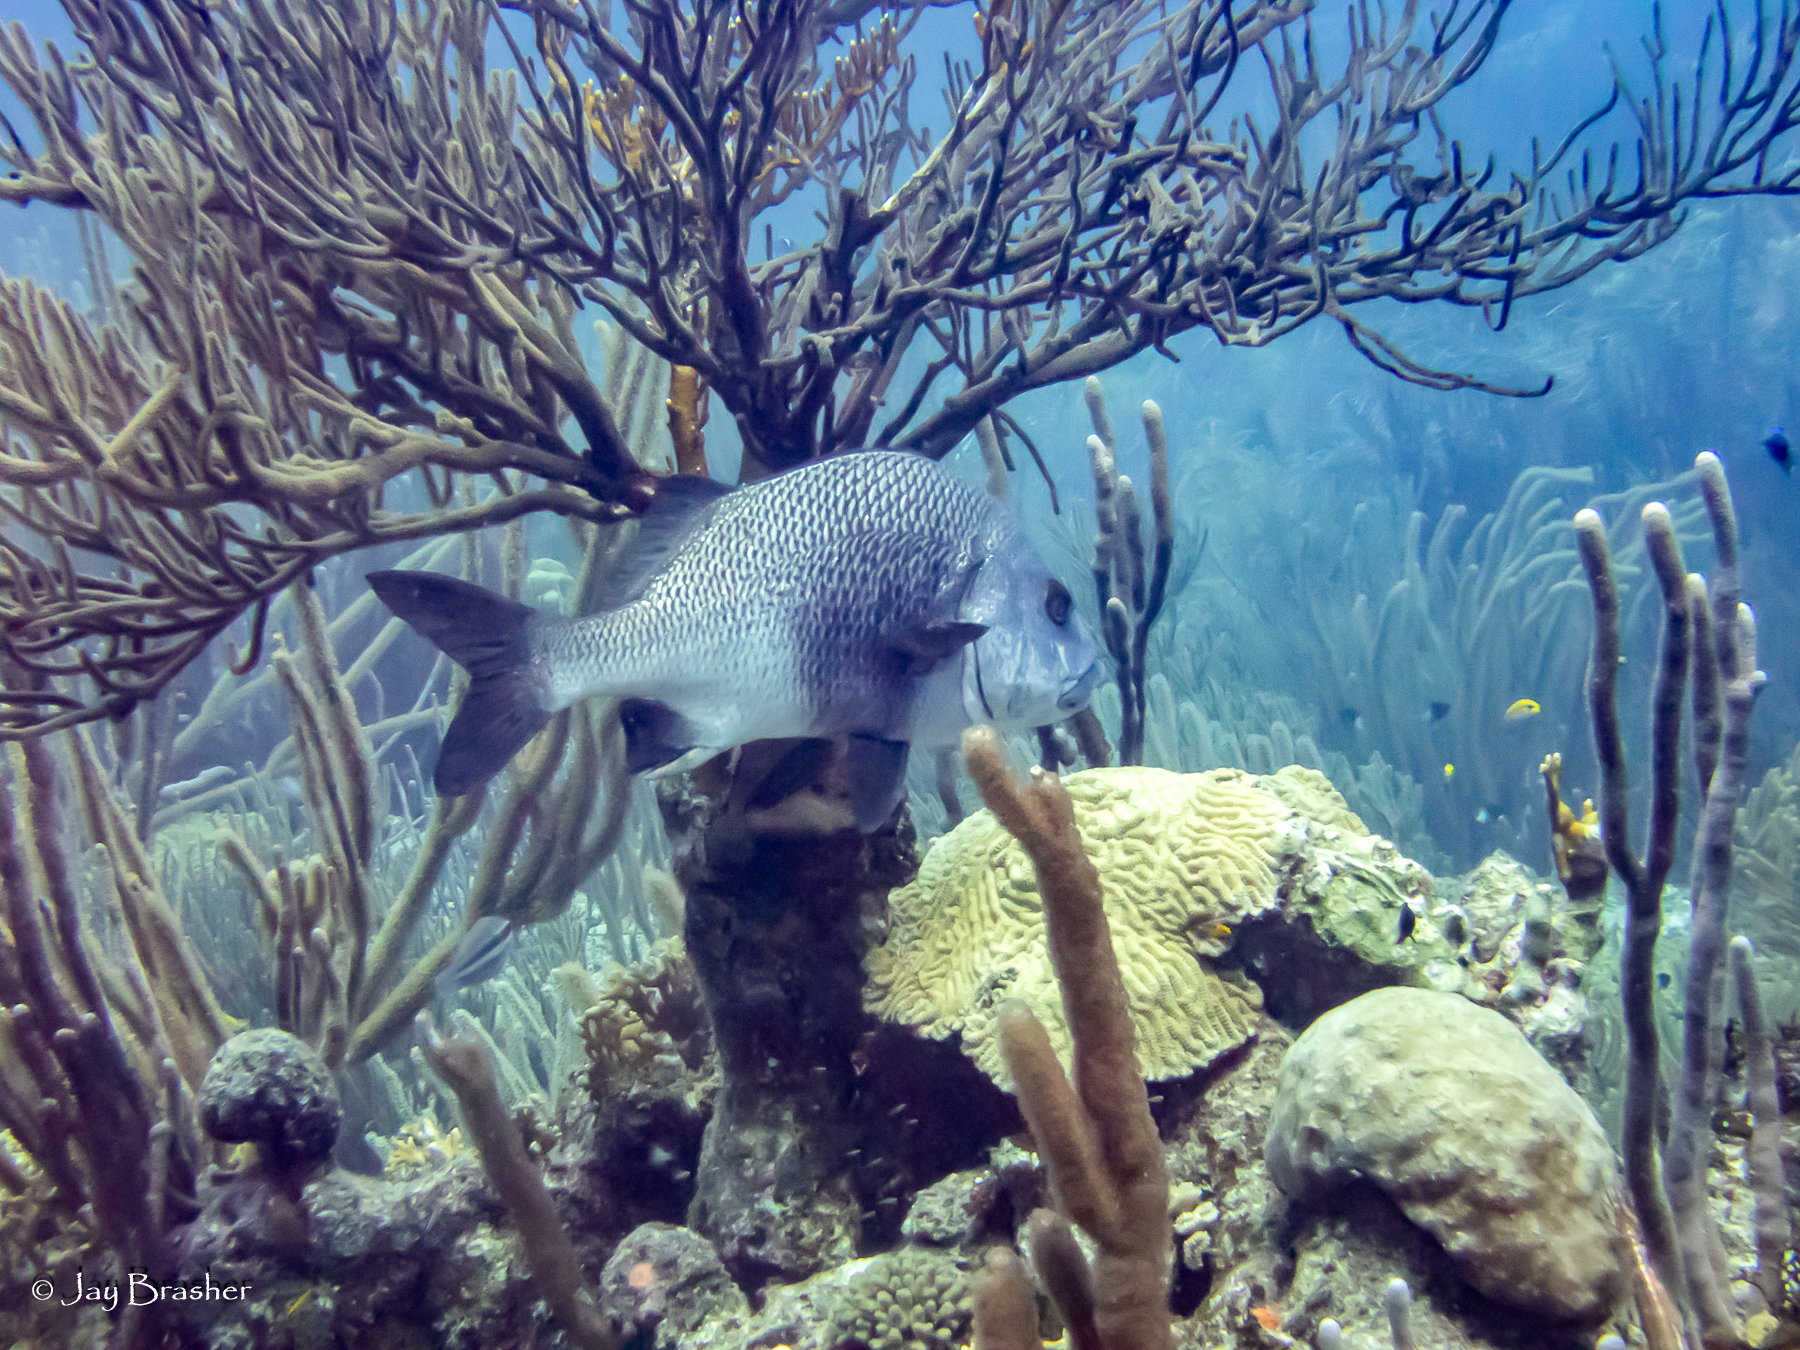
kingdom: Animalia
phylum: Chordata
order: Perciformes
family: Haemulidae
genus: Anisotremus
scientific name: Anisotremus surinamensis
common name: Black margate
